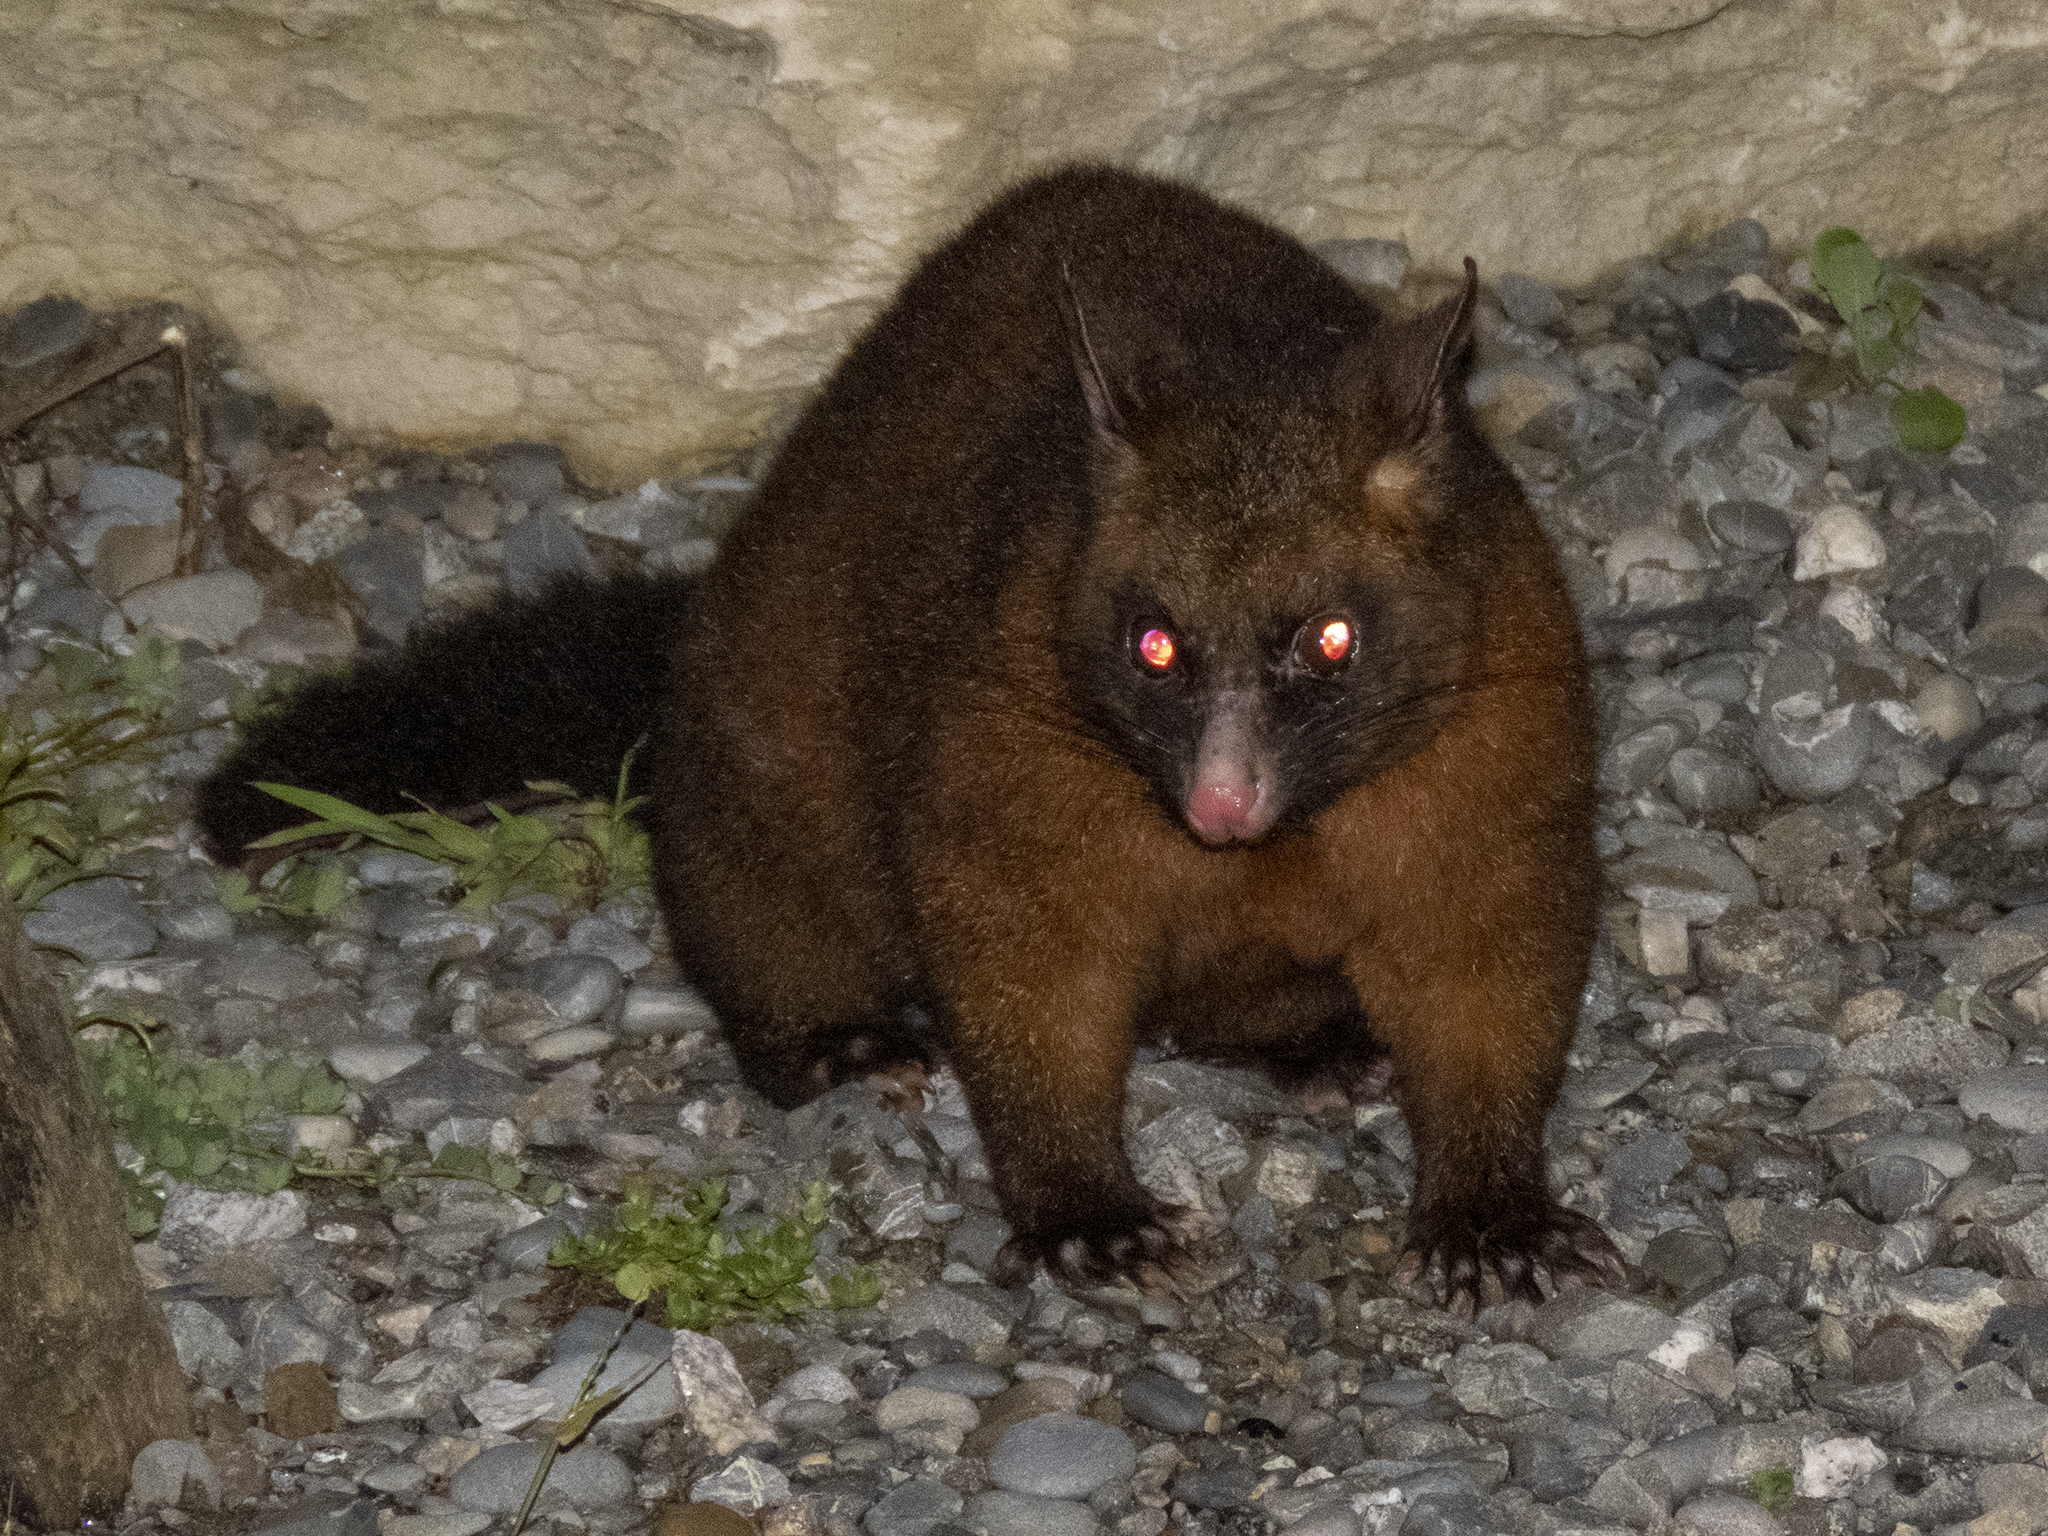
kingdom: Animalia
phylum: Chordata
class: Mammalia
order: Diprotodontia
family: Phalangeridae
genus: Trichosurus
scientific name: Trichosurus vulpecula
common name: Common brushtail
